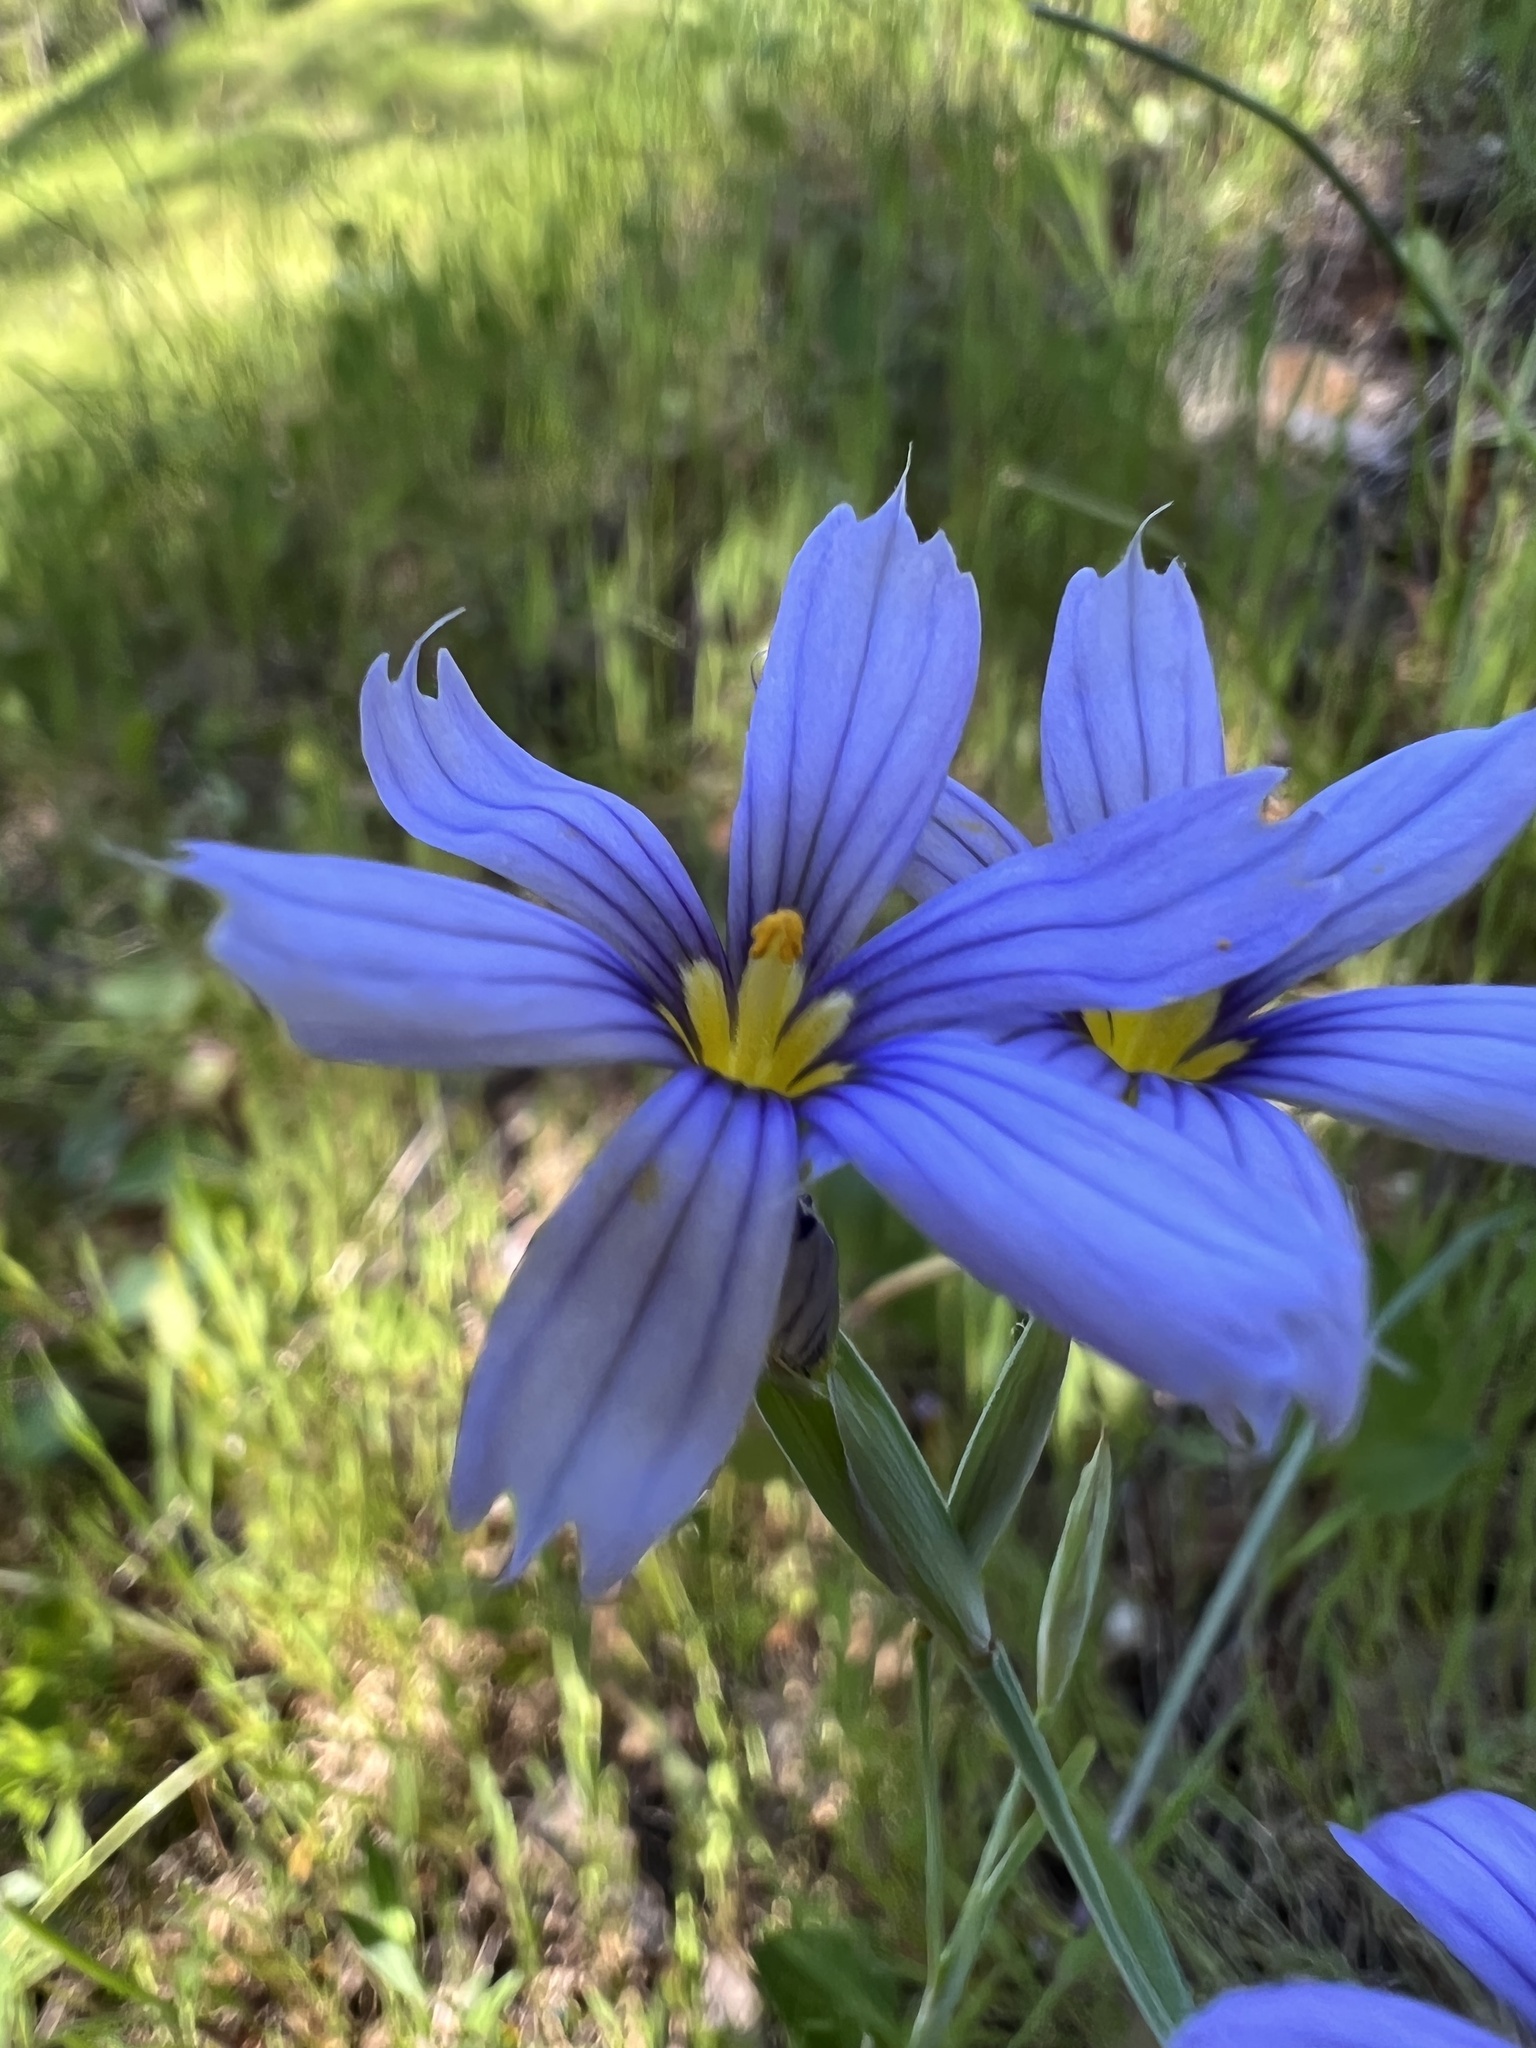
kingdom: Plantae
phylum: Tracheophyta
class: Liliopsida
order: Asparagales
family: Iridaceae
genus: Sisyrinchium
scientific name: Sisyrinchium bellum
